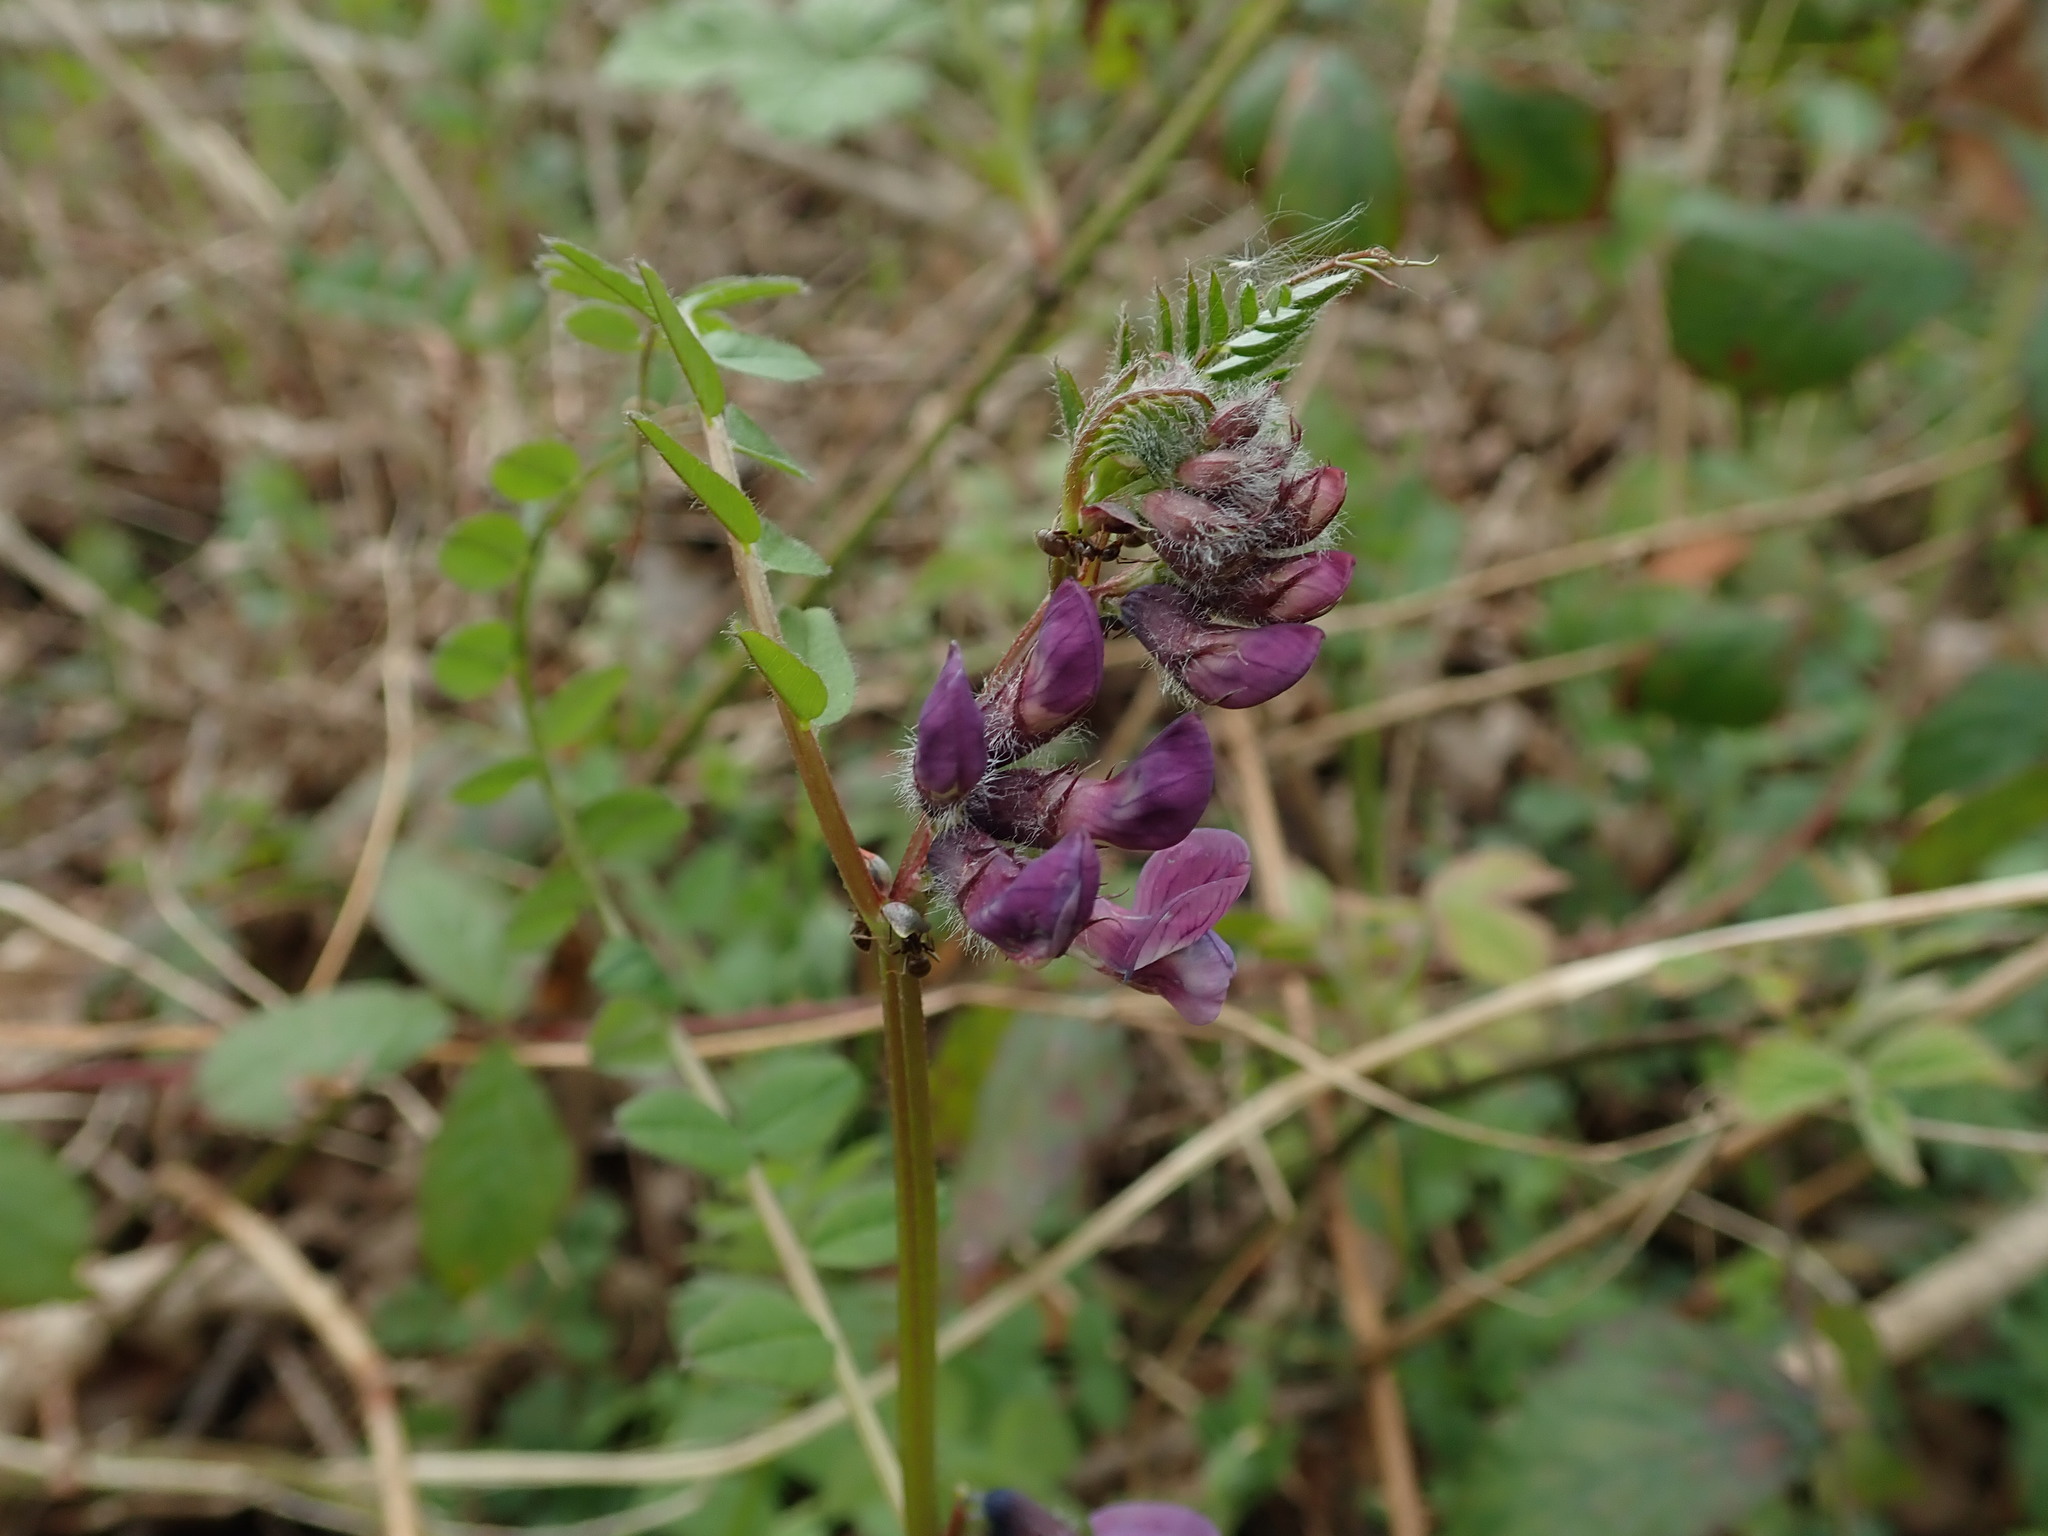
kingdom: Plantae
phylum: Tracheophyta
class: Magnoliopsida
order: Fabales
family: Fabaceae
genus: Vicia
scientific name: Vicia sepium
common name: Bush vetch
